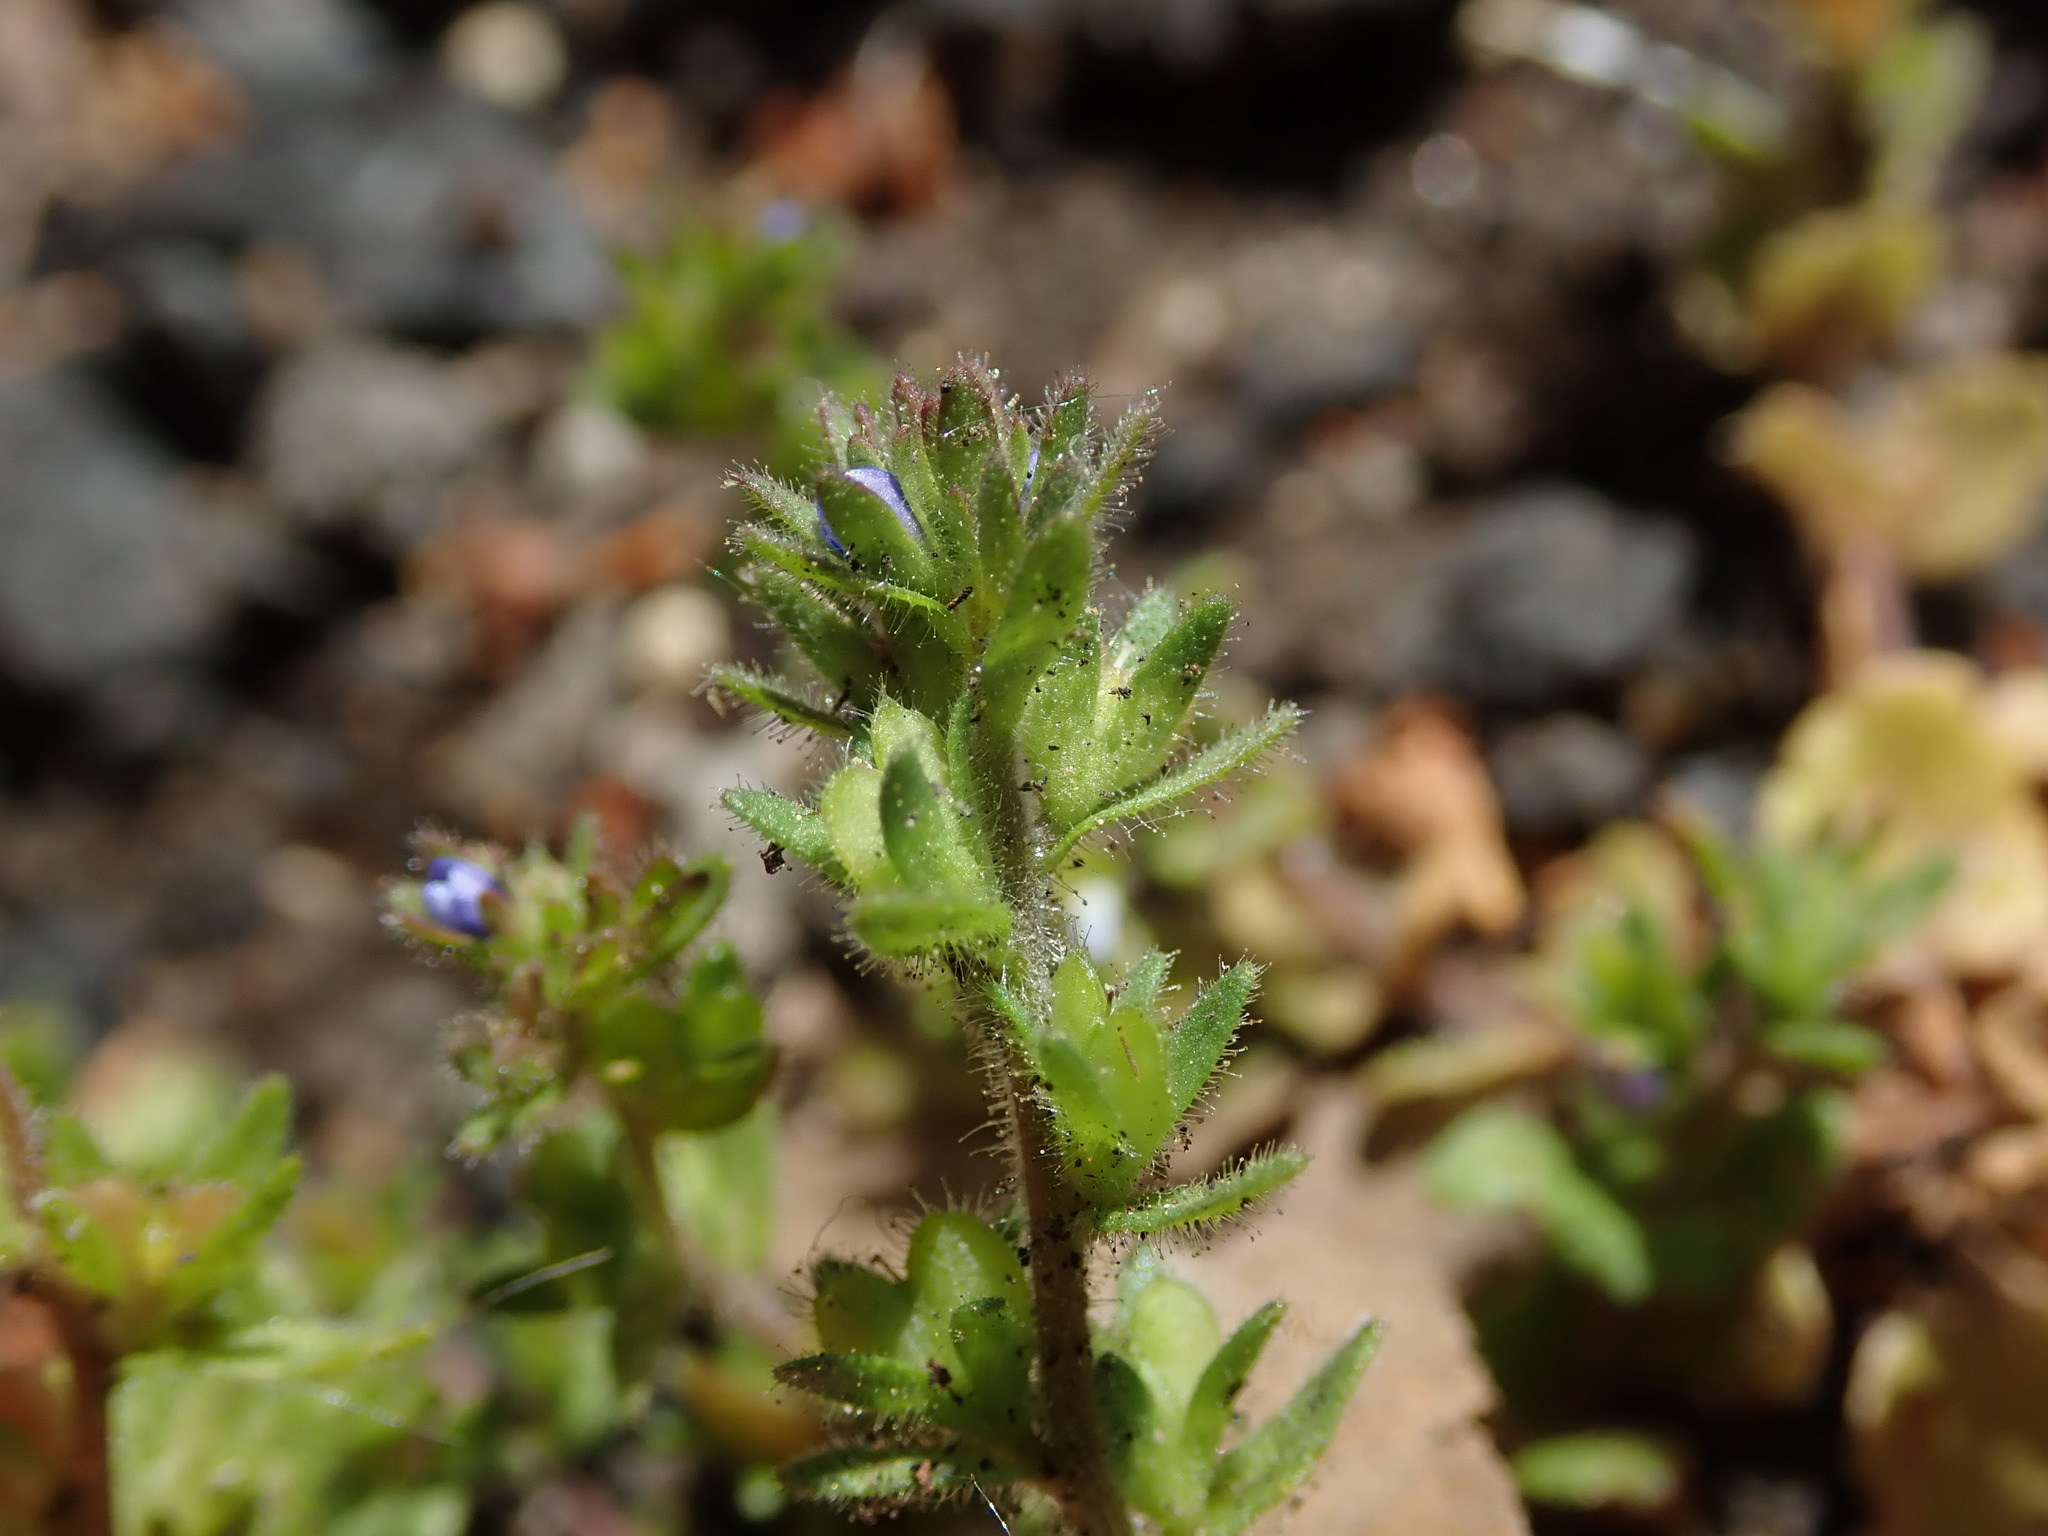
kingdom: Plantae
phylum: Tracheophyta
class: Magnoliopsida
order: Lamiales
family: Plantaginaceae
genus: Veronica
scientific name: Veronica arvensis
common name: Corn speedwell
